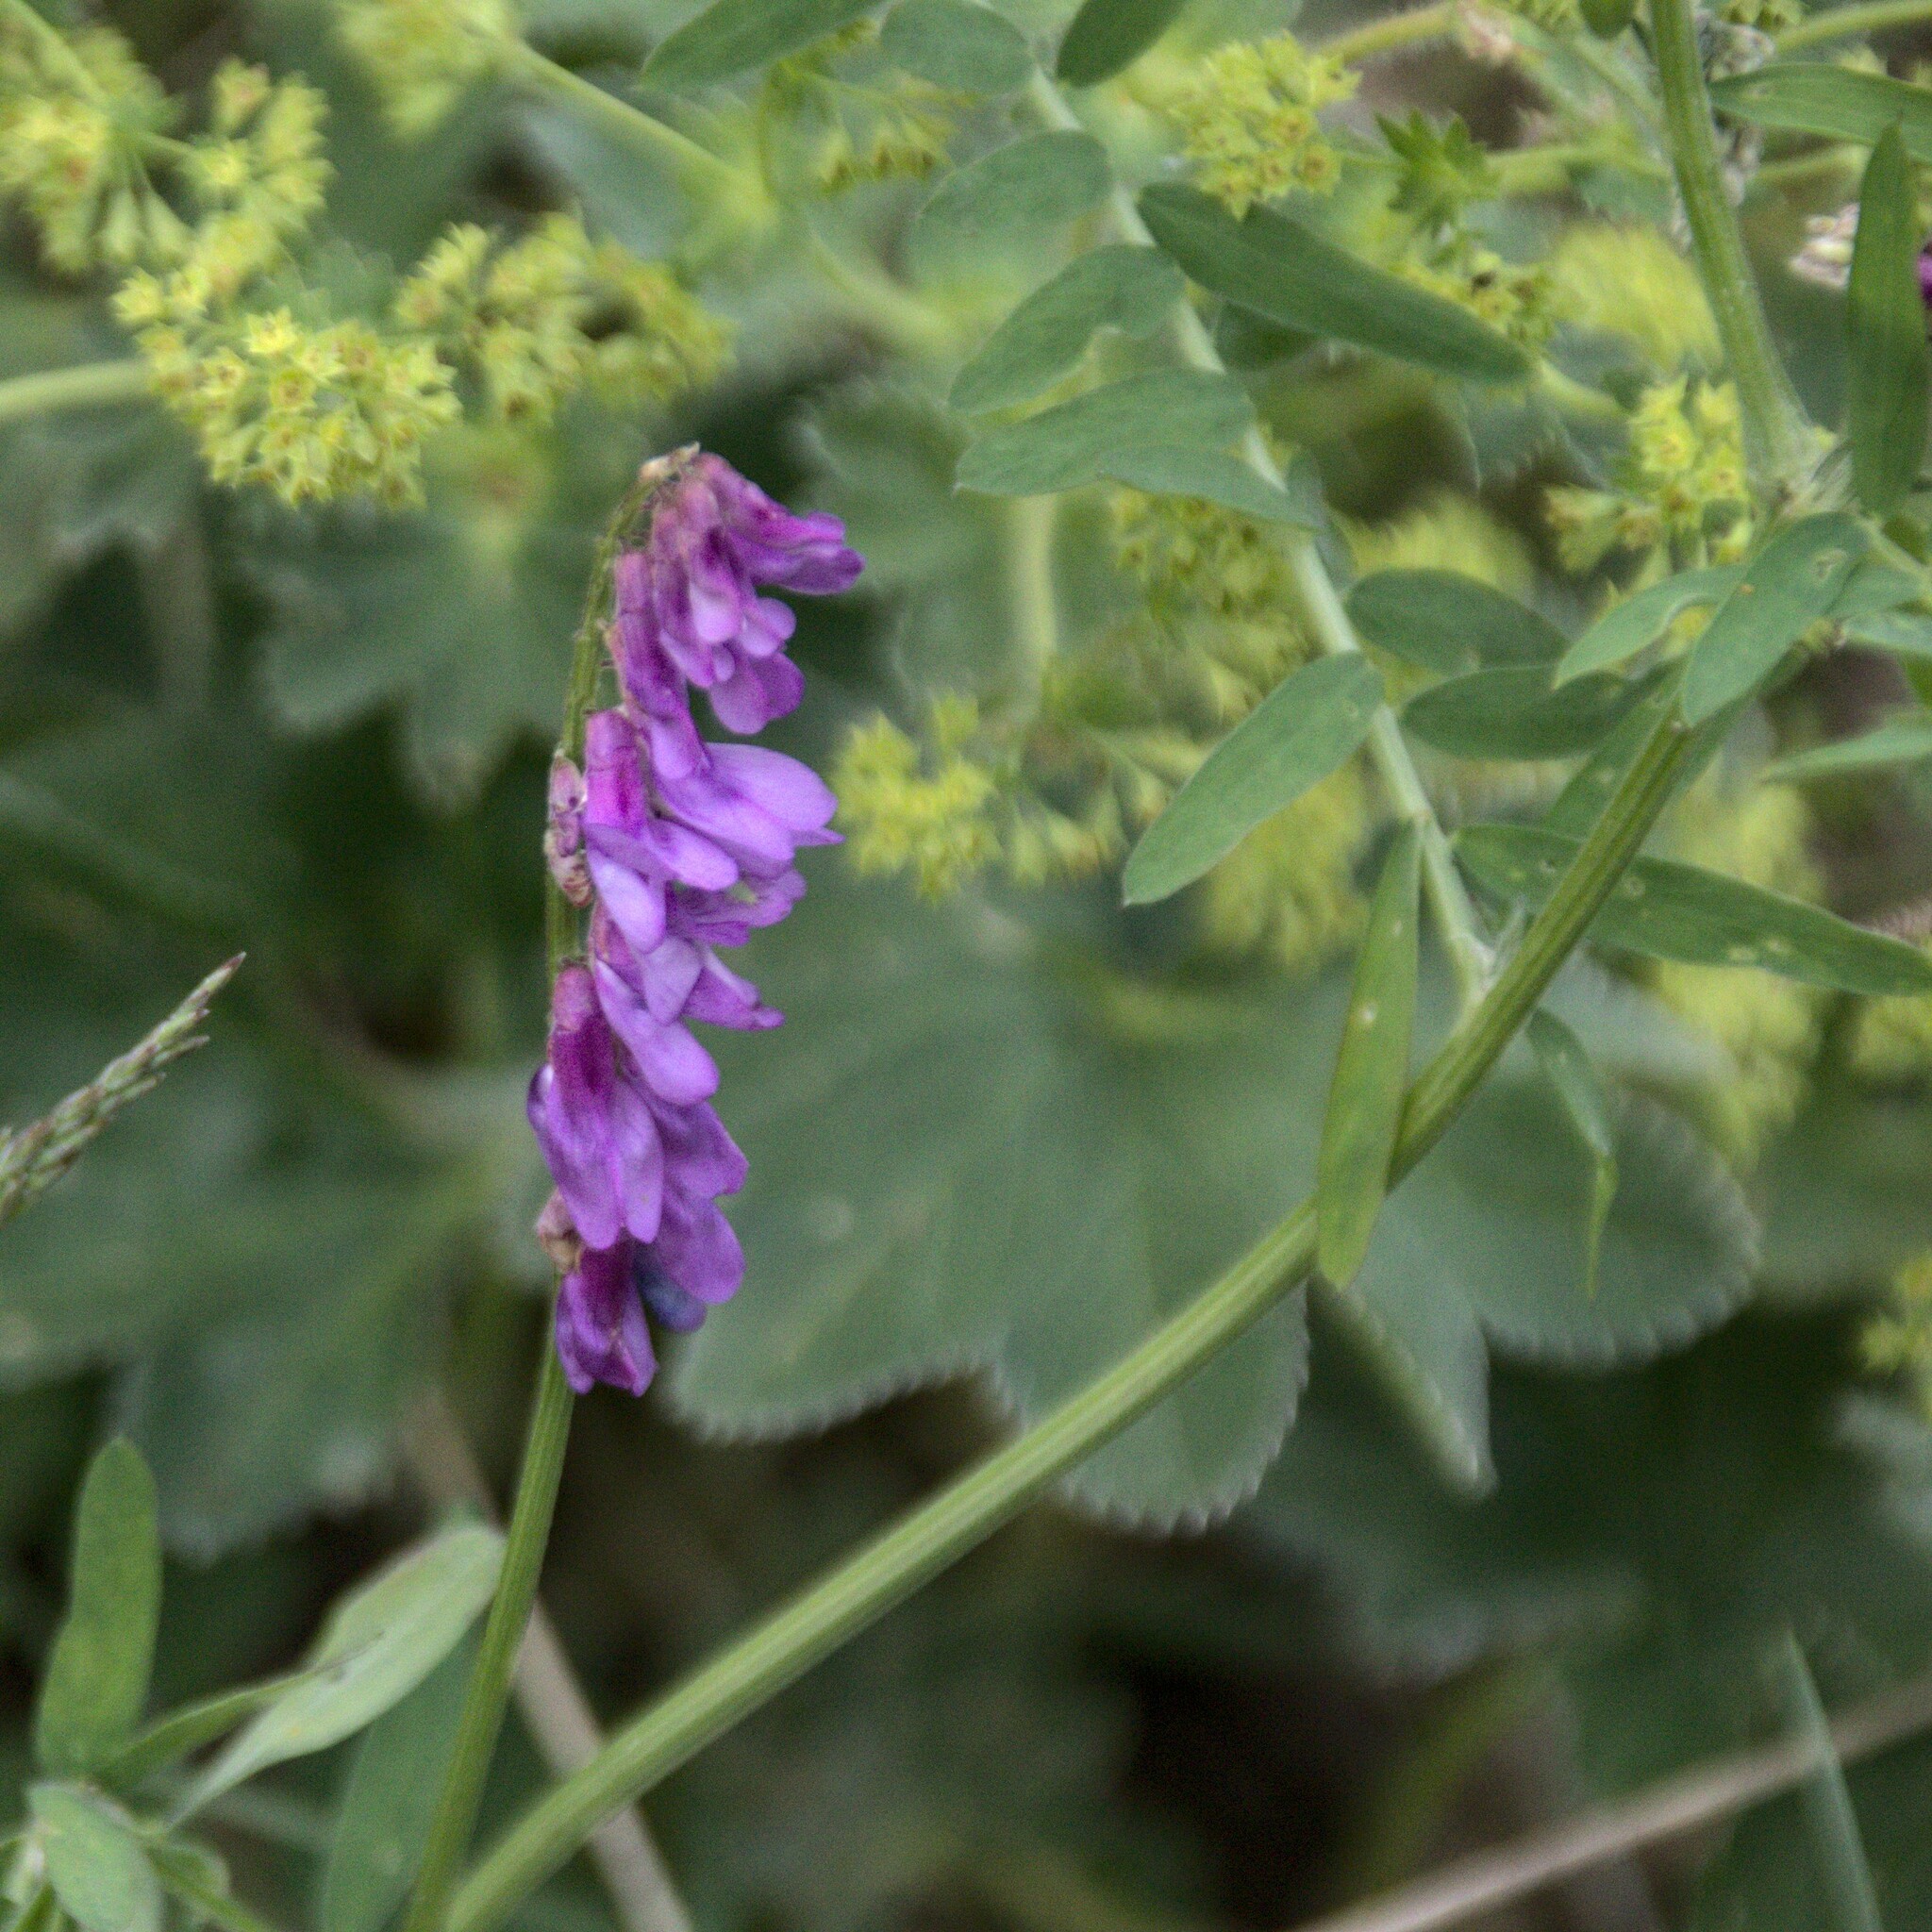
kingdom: Plantae
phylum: Tracheophyta
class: Magnoliopsida
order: Fabales
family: Fabaceae
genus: Vicia
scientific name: Vicia cracca
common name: Bird vetch
